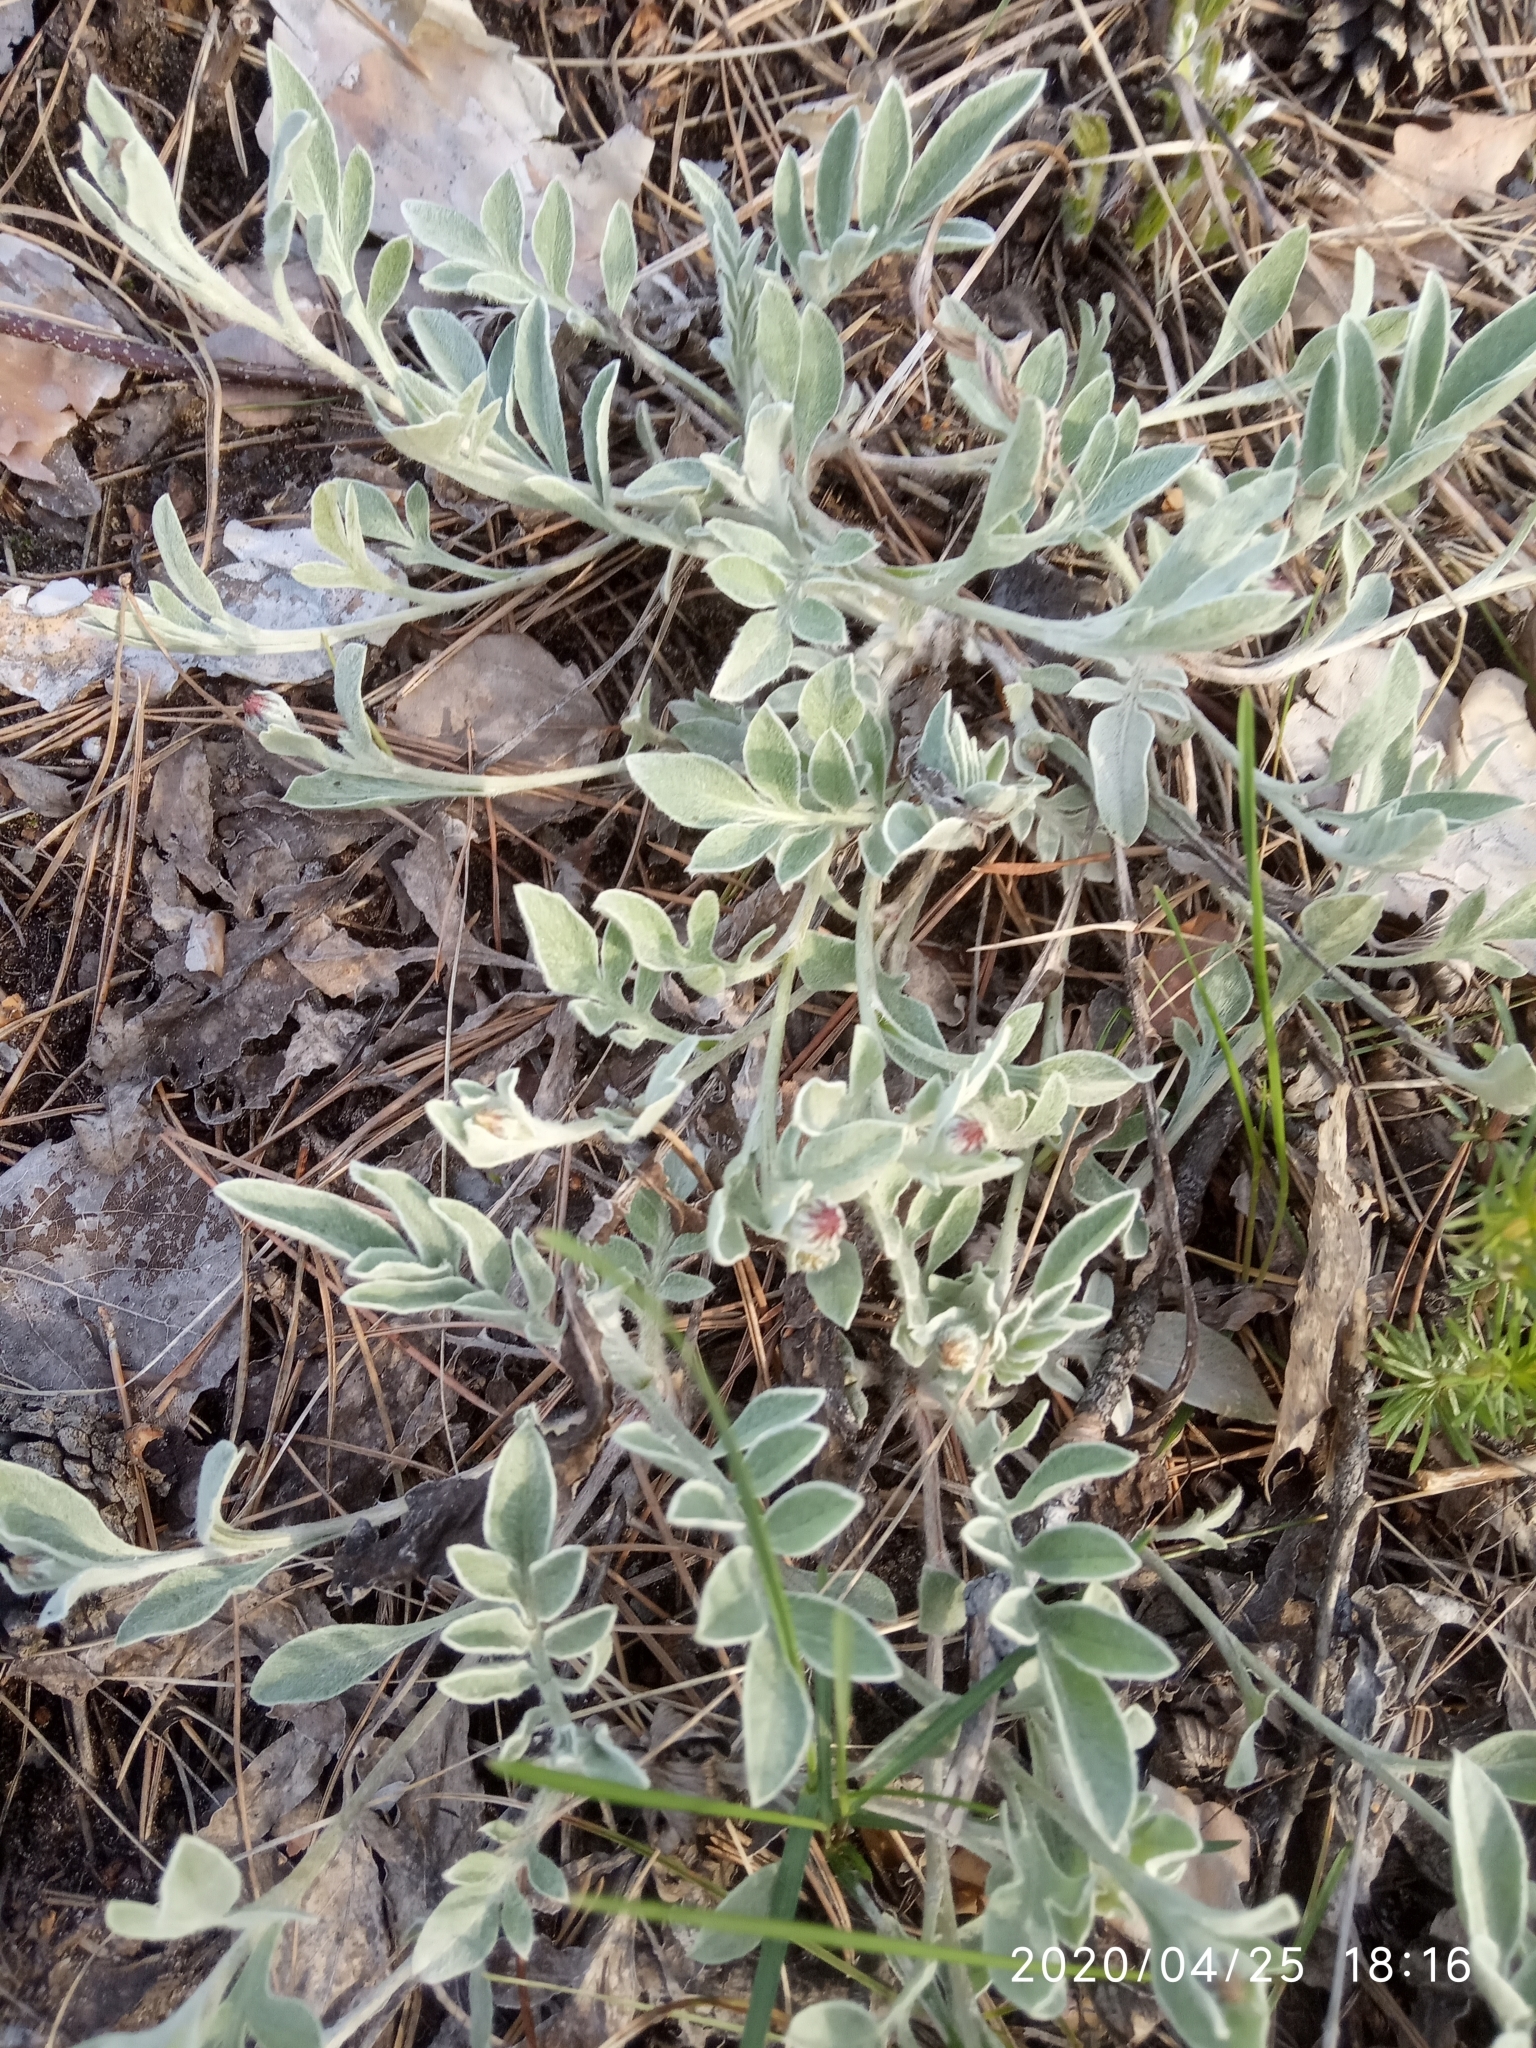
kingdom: Plantae
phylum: Tracheophyta
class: Magnoliopsida
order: Asterales
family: Asteraceae
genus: Psephellus
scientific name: Psephellus sumensis
